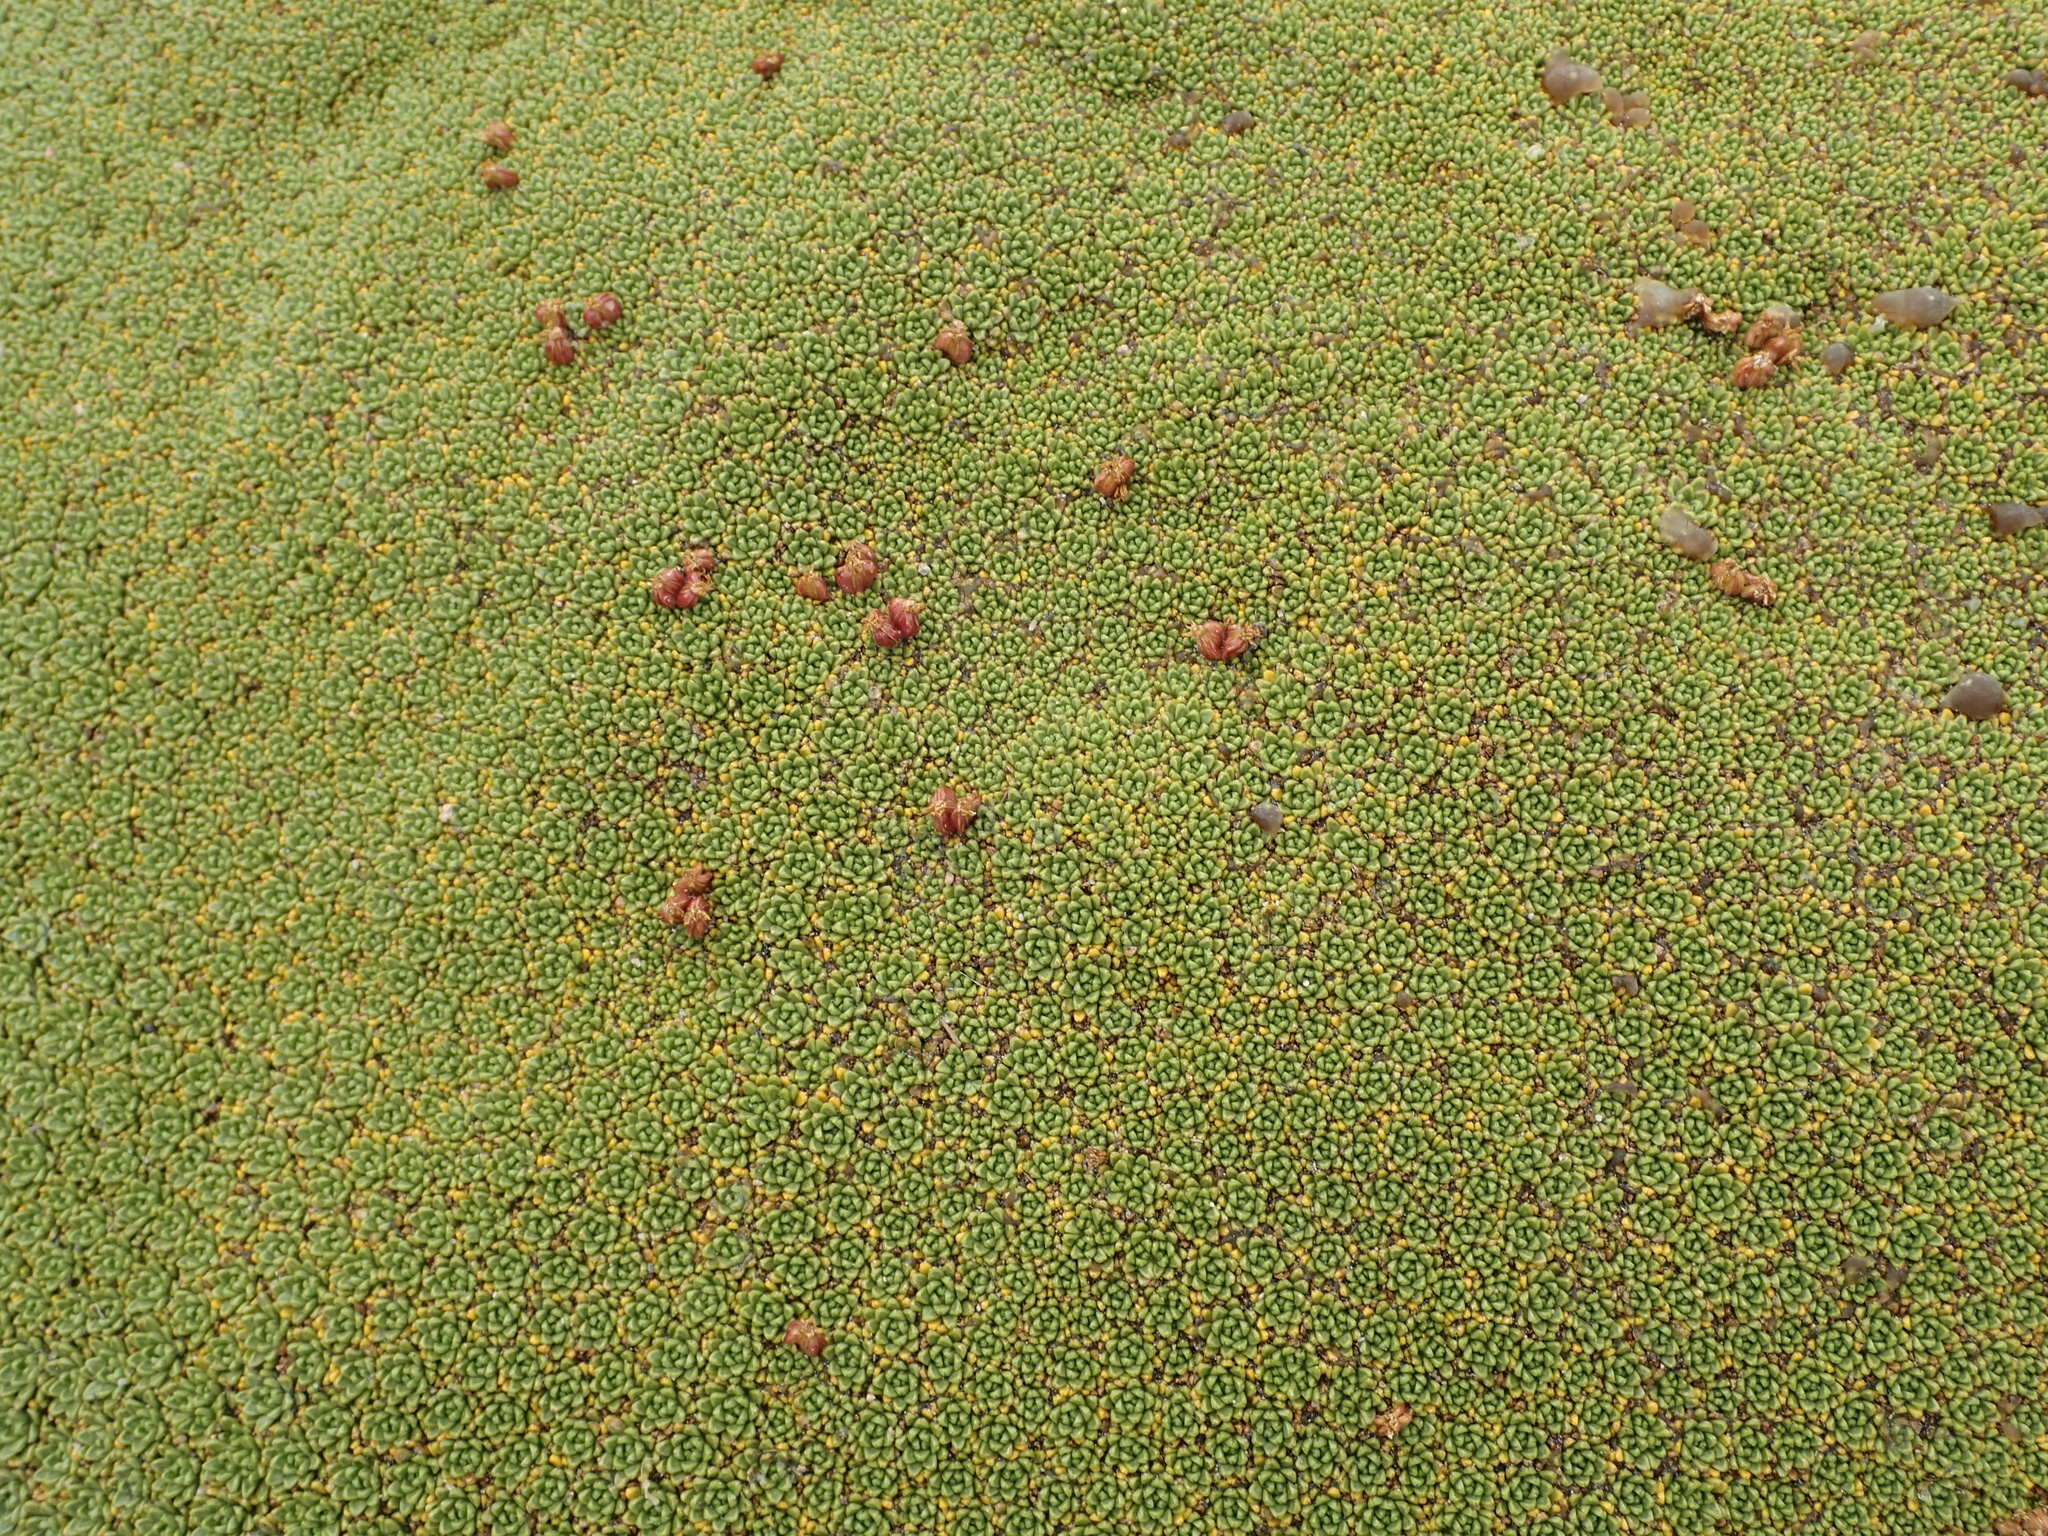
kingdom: Plantae
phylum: Tracheophyta
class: Magnoliopsida
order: Apiales
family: Apiaceae
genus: Azorella
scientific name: Azorella compacta
